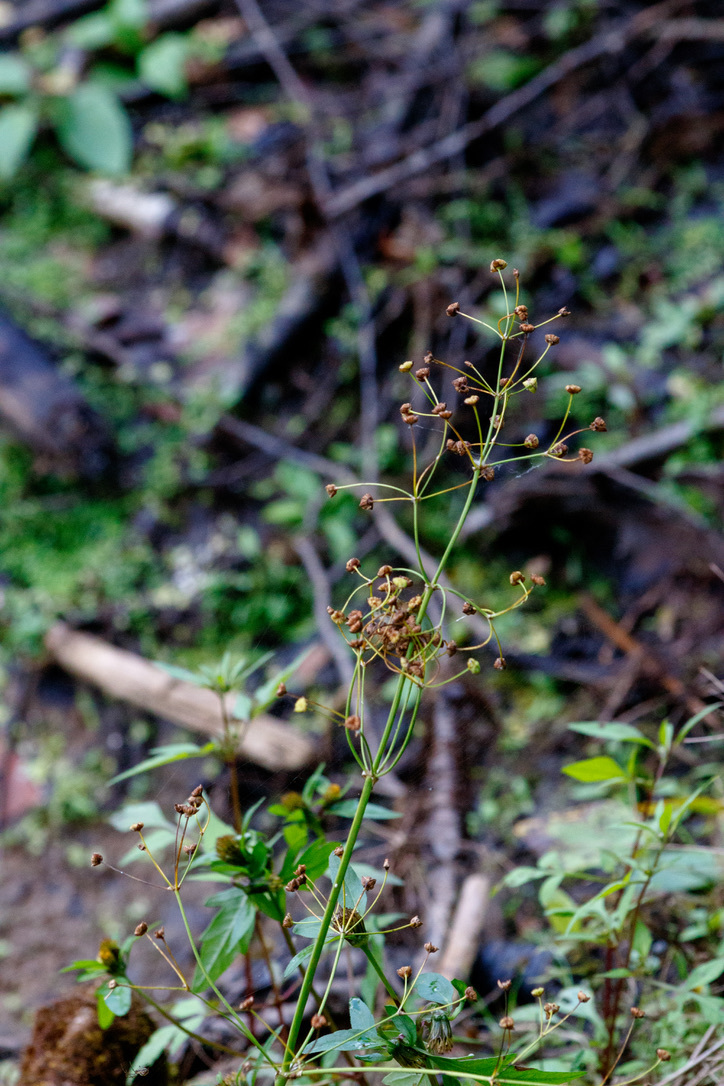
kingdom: Plantae
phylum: Tracheophyta
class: Liliopsida
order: Alismatales
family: Alismataceae
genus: Alisma
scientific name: Alisma plantago-aquatica
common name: Water-plantain
